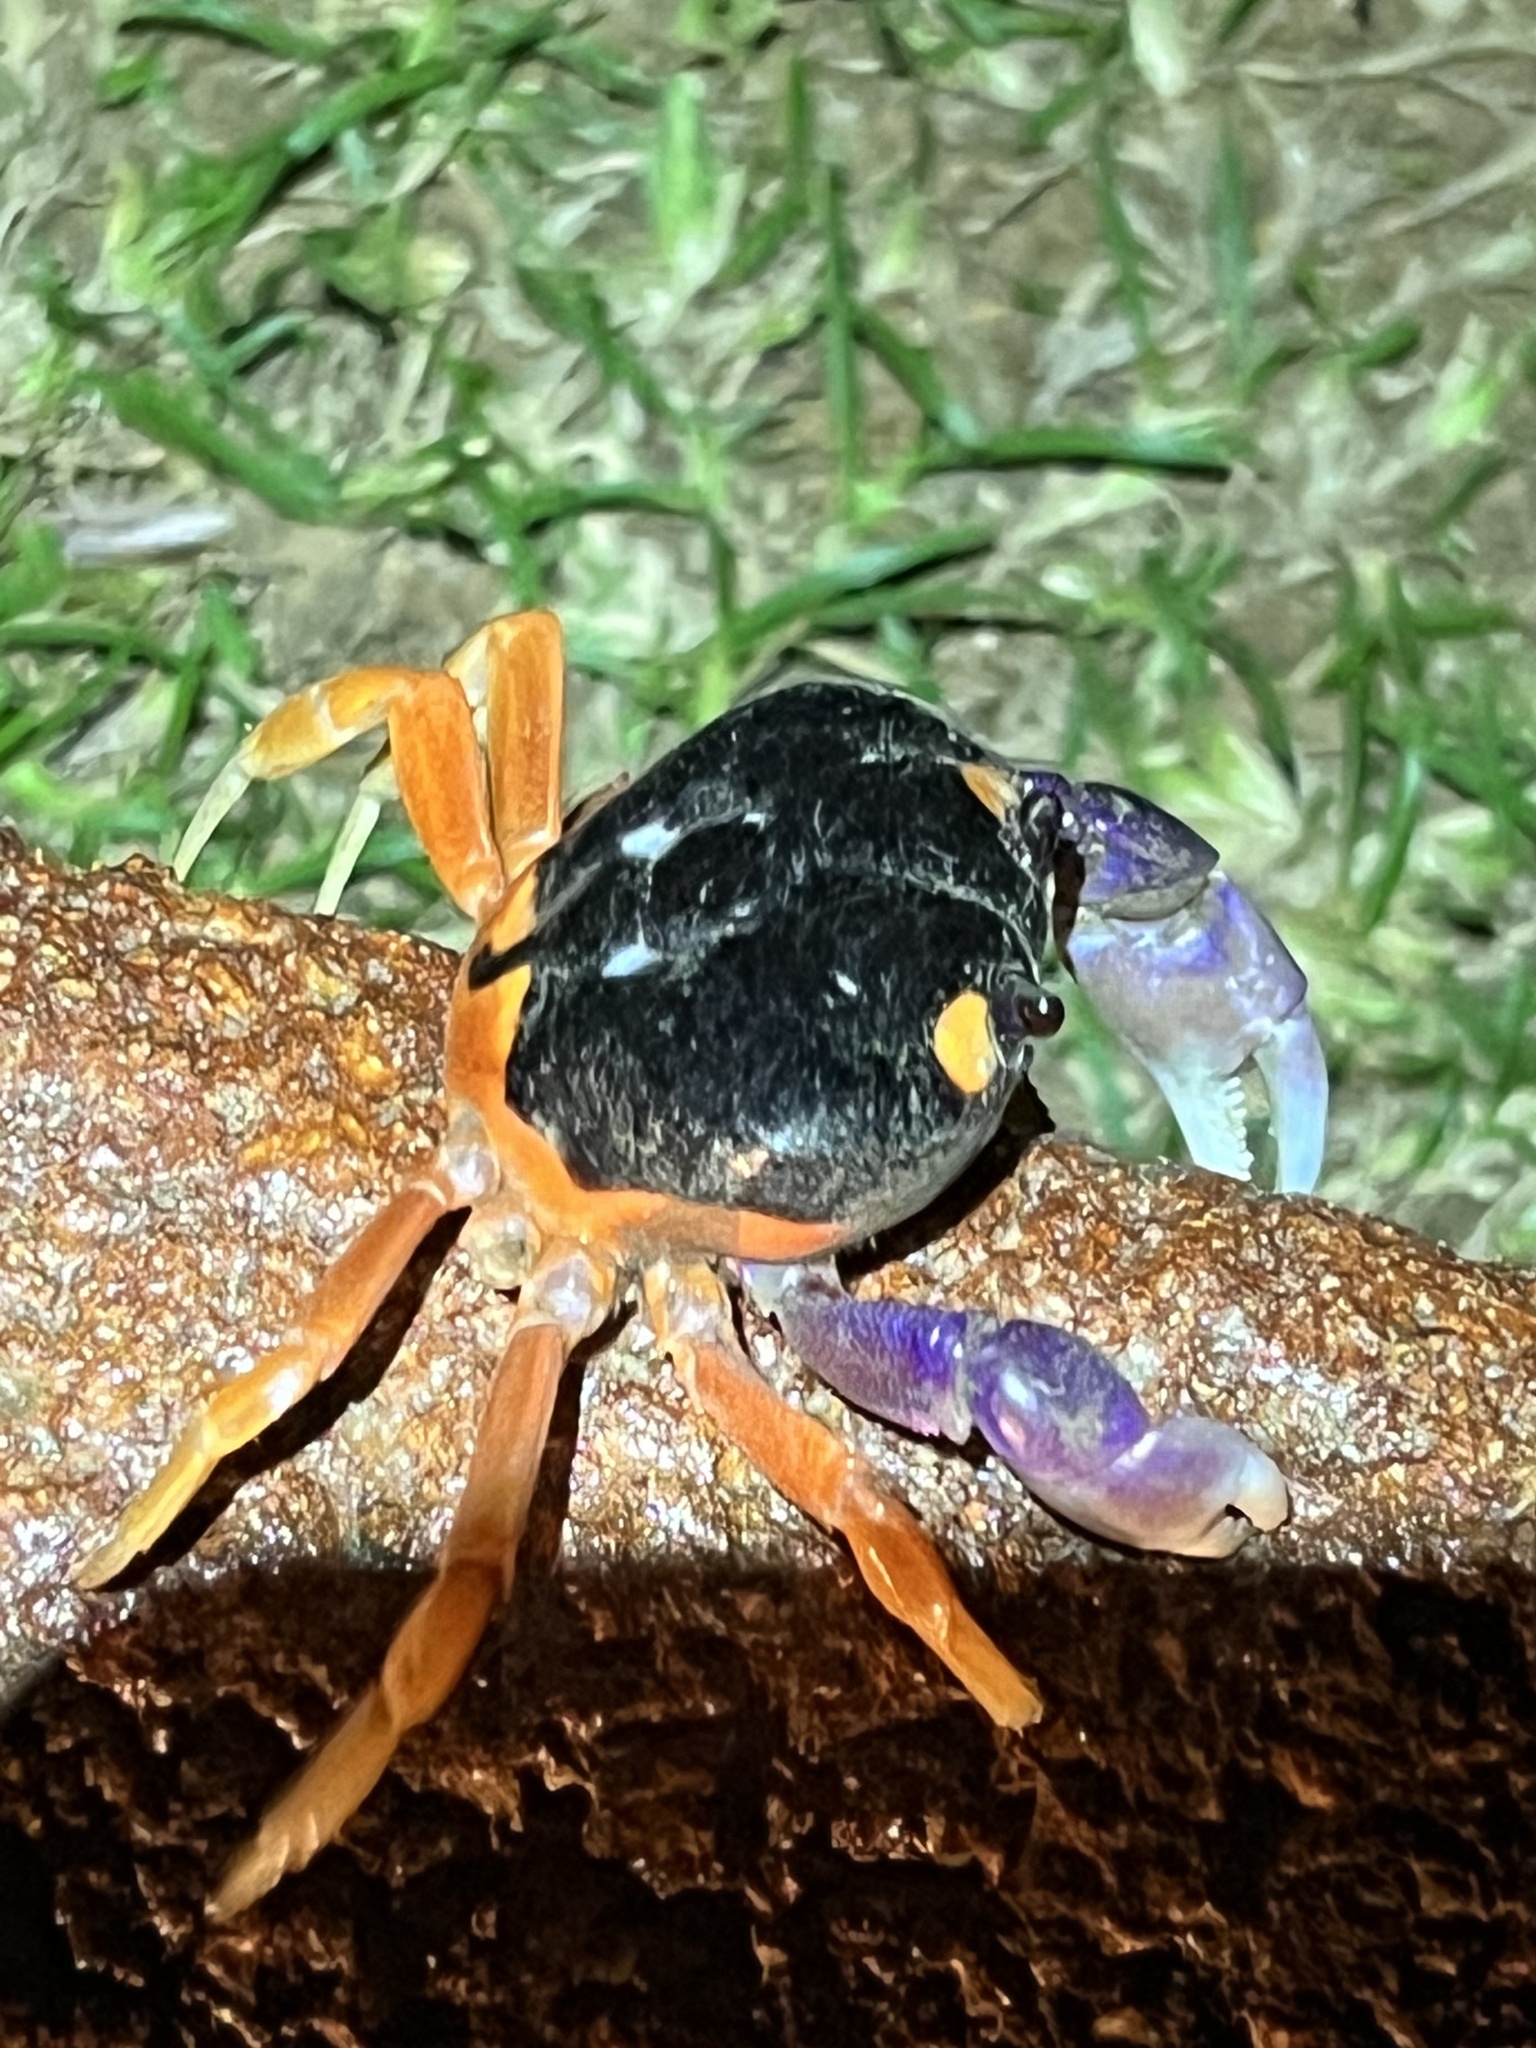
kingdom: Animalia
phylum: Arthropoda
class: Malacostraca
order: Decapoda
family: Gecarcinidae
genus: Gecarcinus
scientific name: Gecarcinus quadratus
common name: Halloween crab
